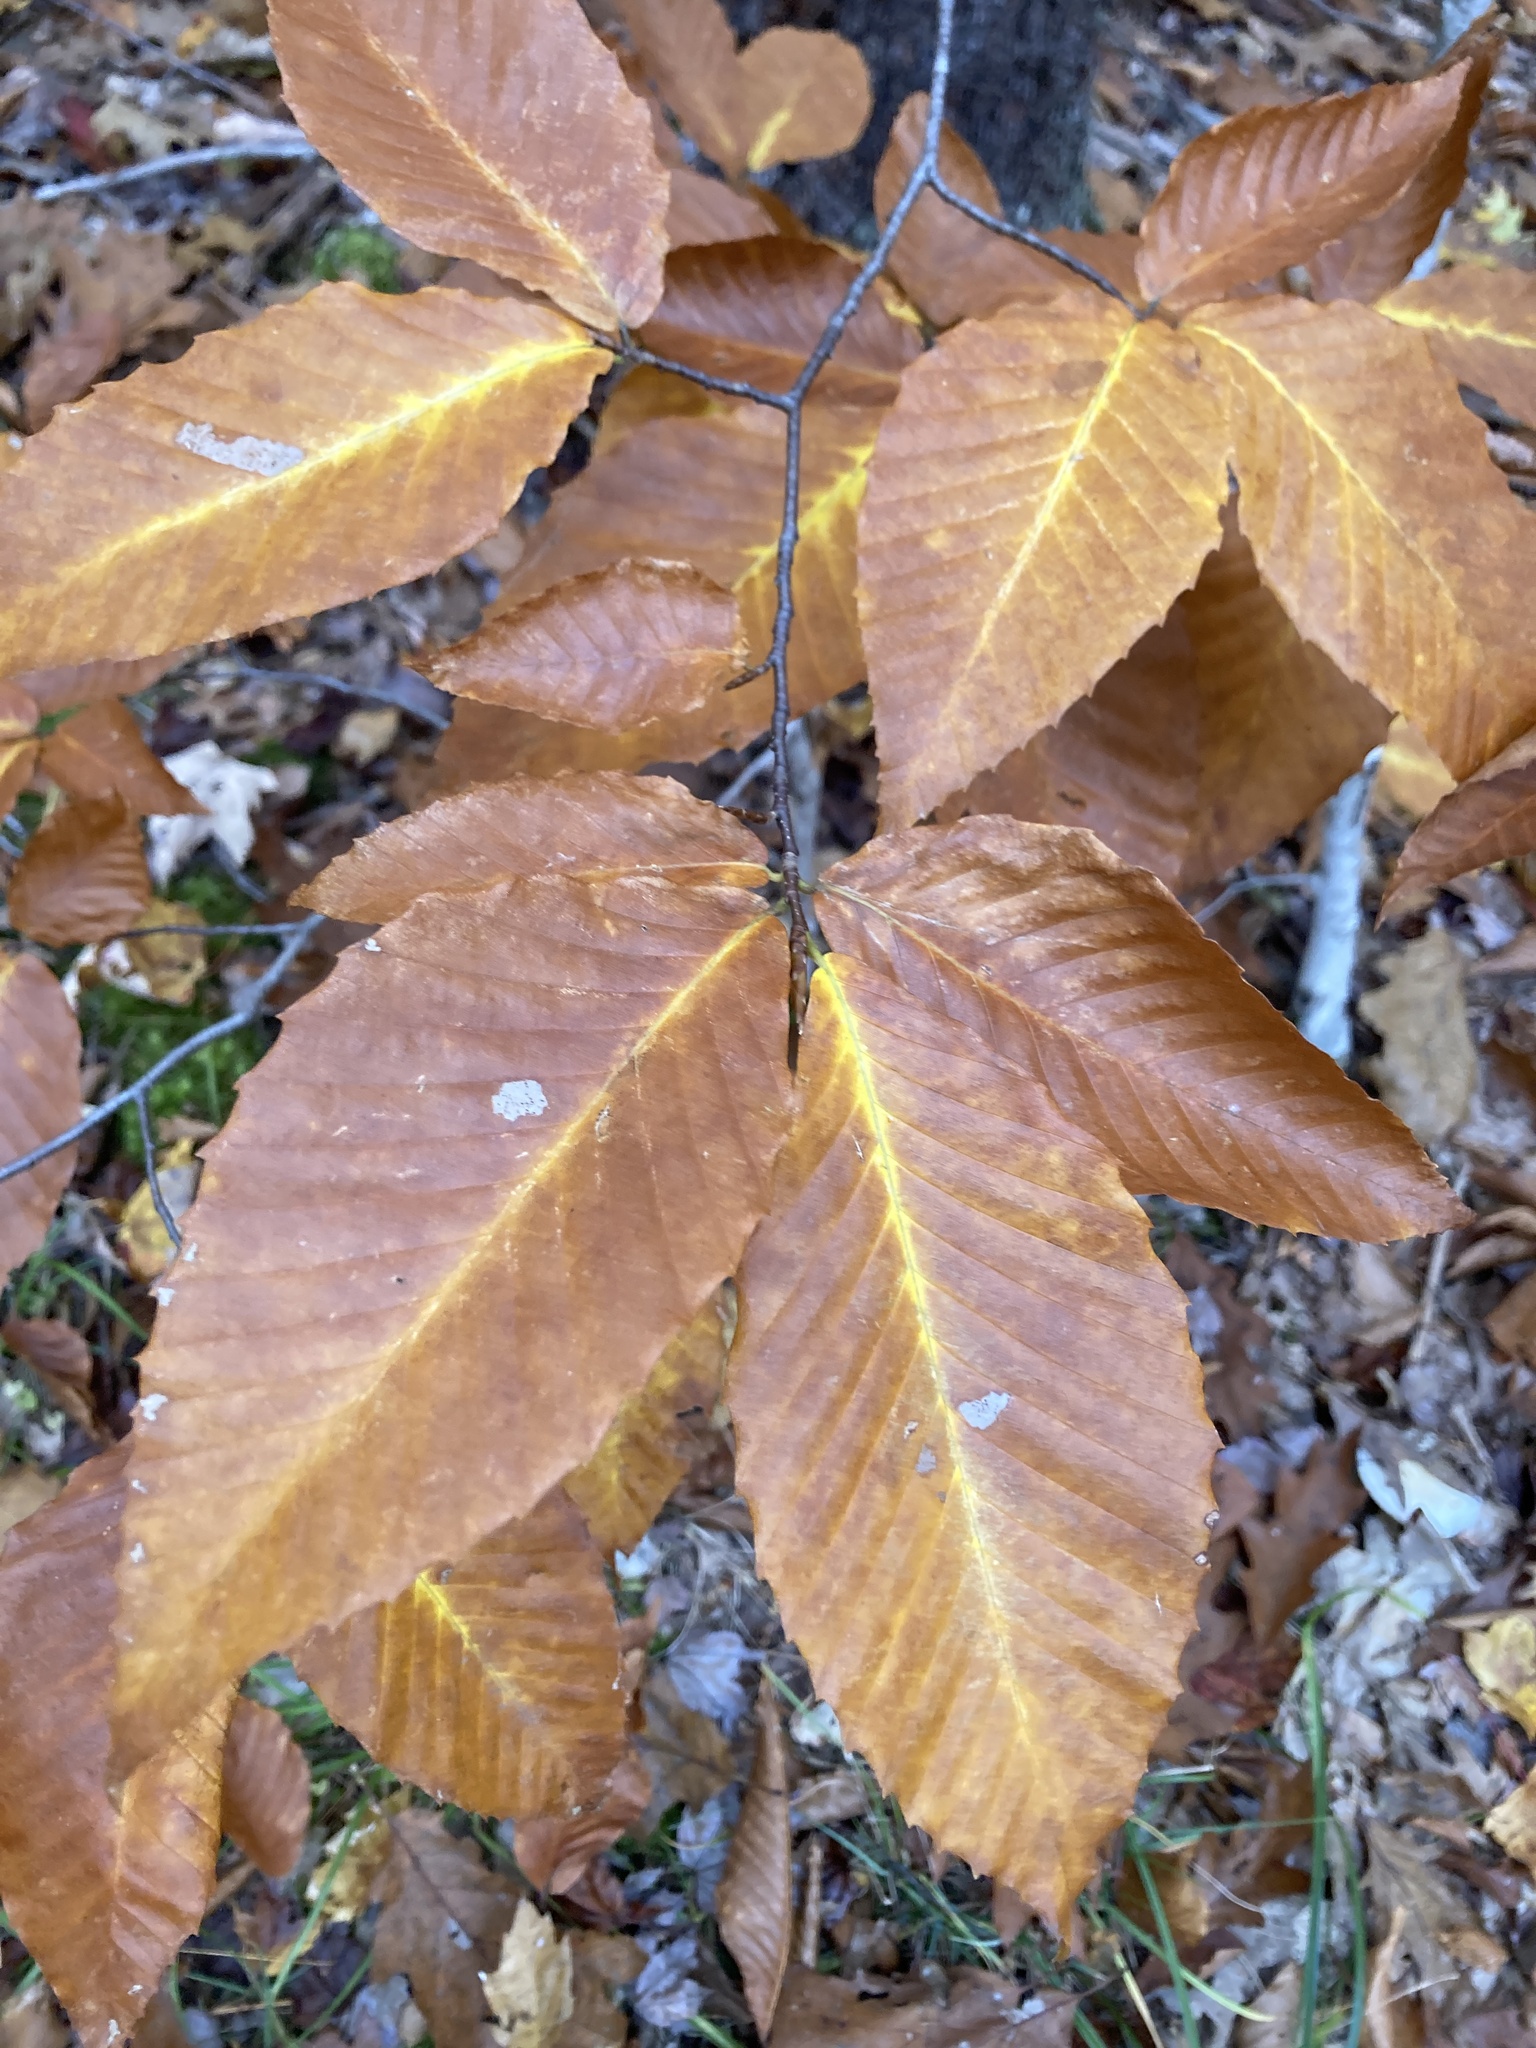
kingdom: Plantae
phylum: Tracheophyta
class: Magnoliopsida
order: Fagales
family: Fagaceae
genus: Fagus
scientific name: Fagus grandifolia
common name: American beech
